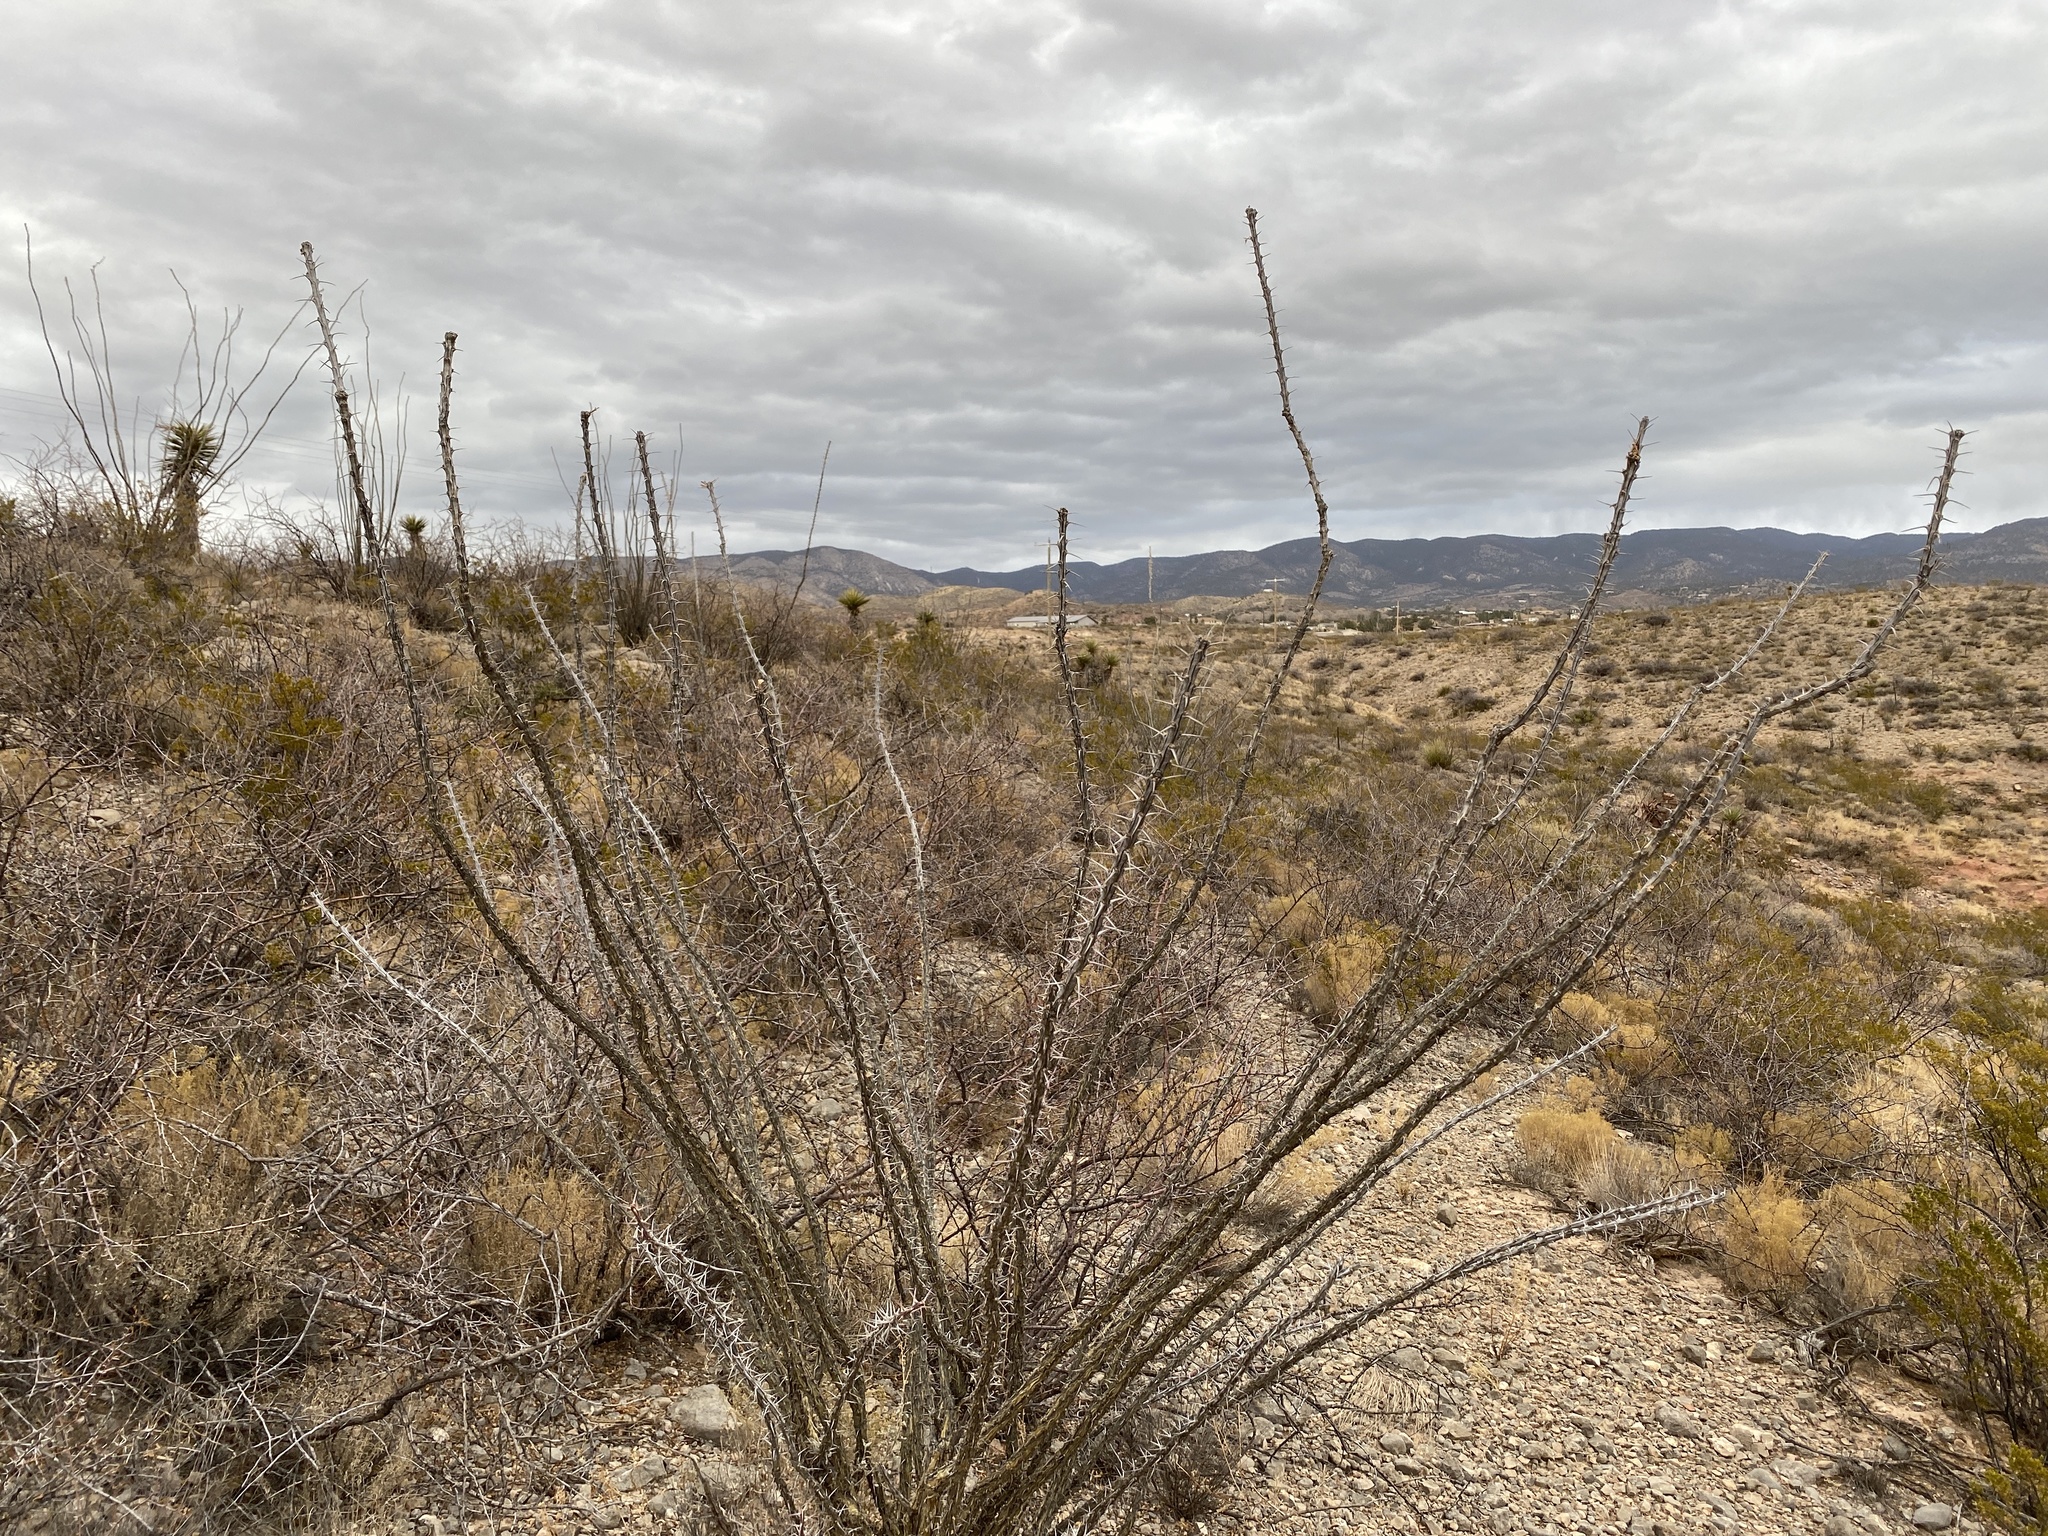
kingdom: Plantae
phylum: Tracheophyta
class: Magnoliopsida
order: Ericales
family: Fouquieriaceae
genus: Fouquieria
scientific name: Fouquieria splendens
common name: Vine-cactus
